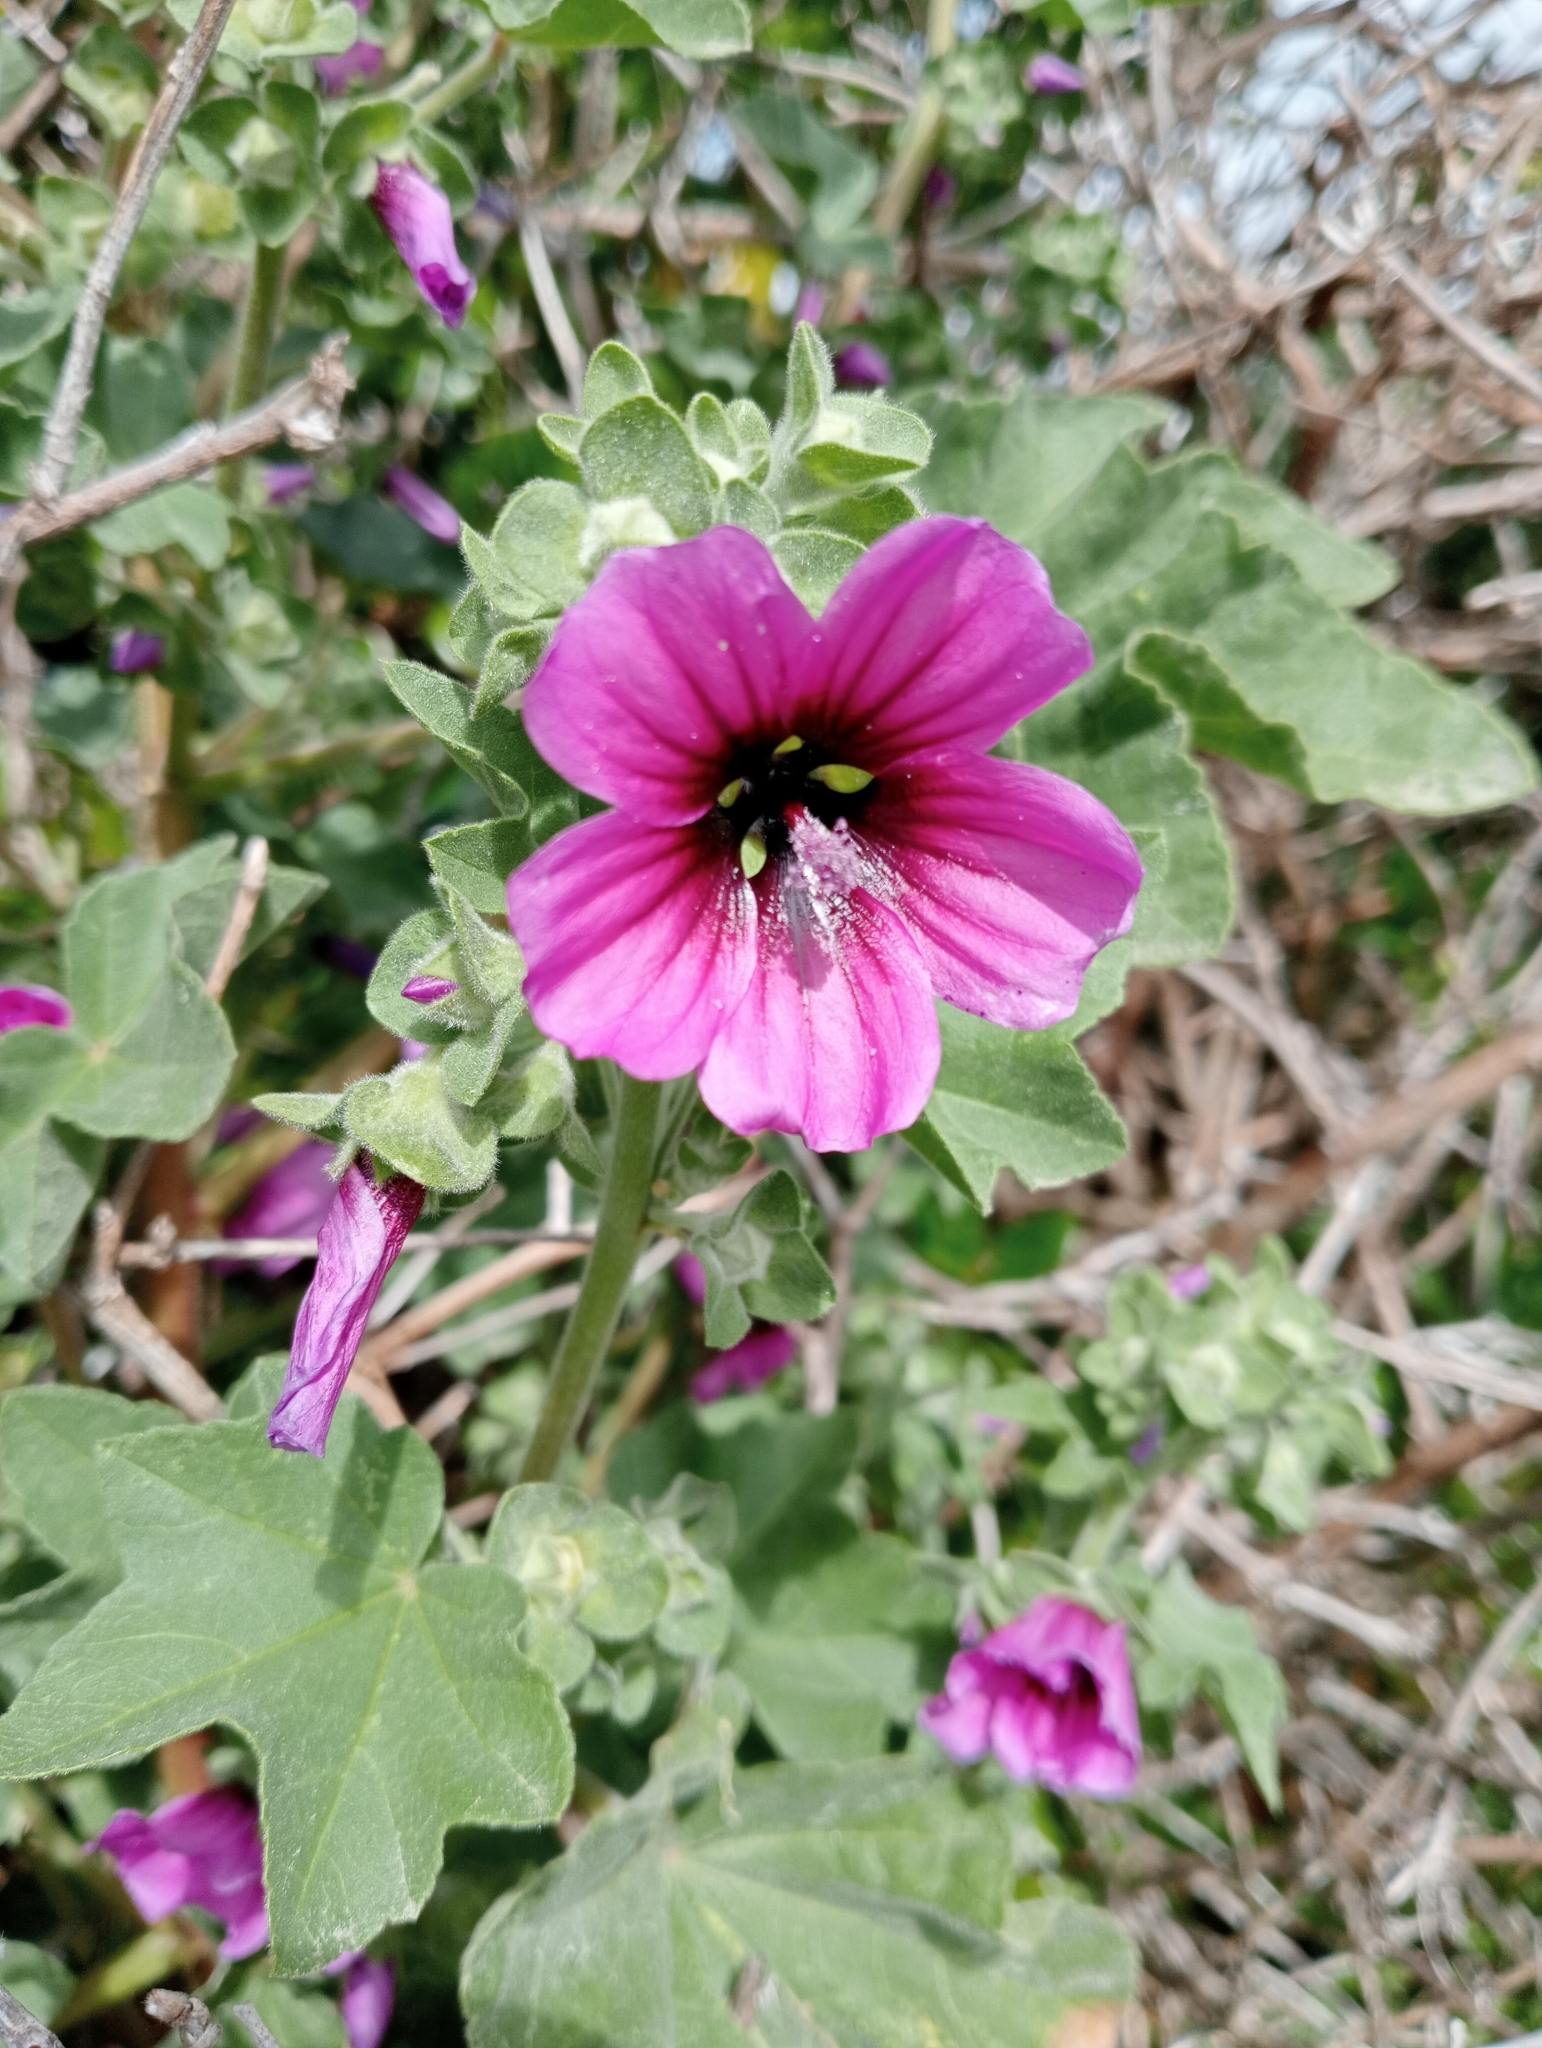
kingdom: Plantae
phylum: Tracheophyta
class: Magnoliopsida
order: Malvales
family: Malvaceae
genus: Malva
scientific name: Malva arborea
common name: Tree mallow
